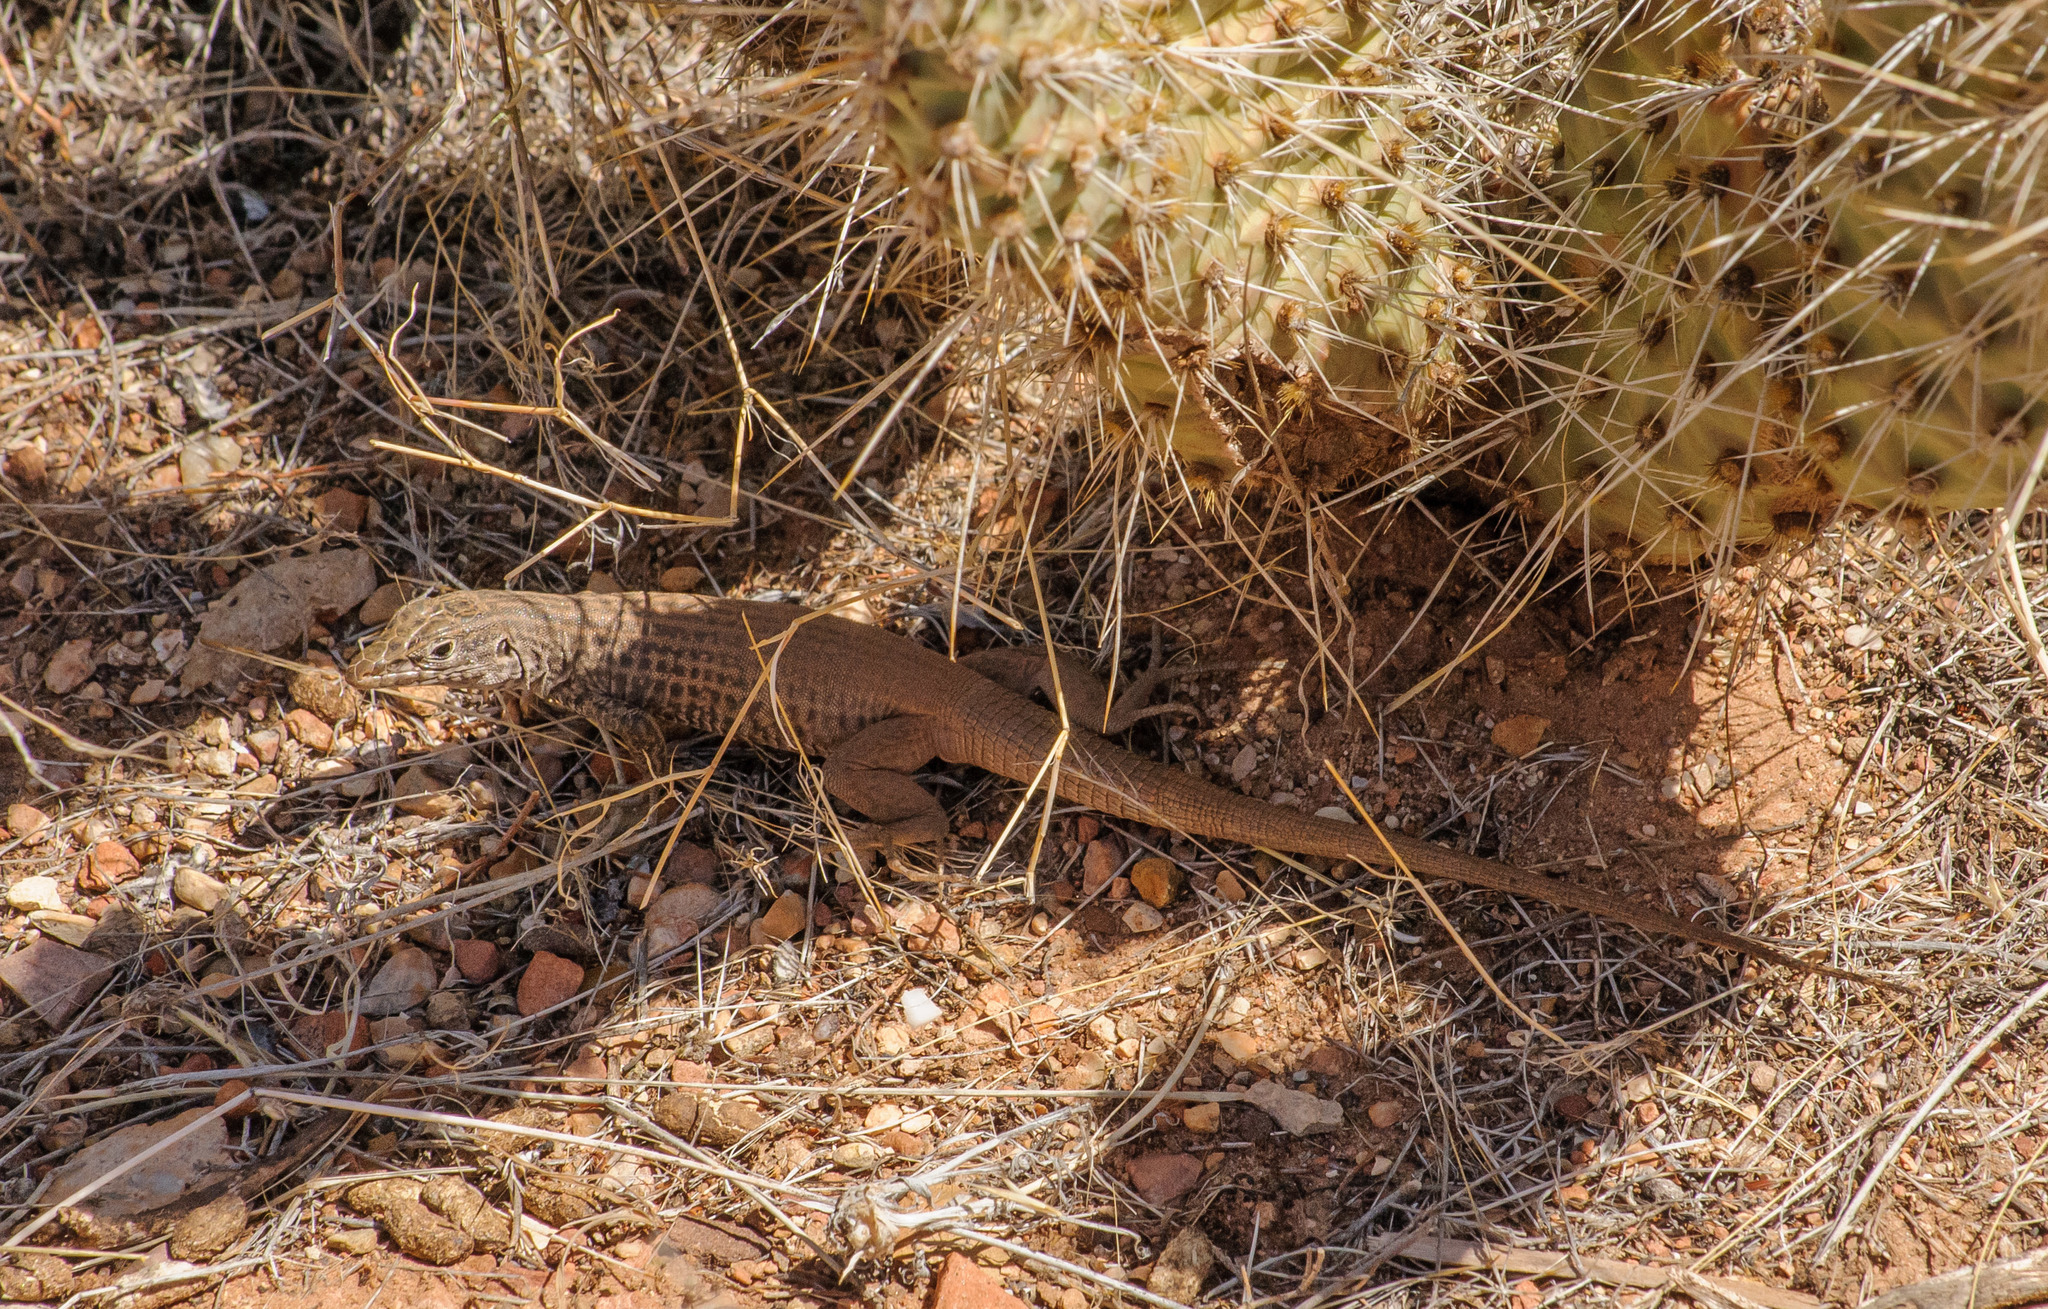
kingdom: Animalia
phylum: Chordata
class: Squamata
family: Teiidae
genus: Aspidoscelis
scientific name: Aspidoscelis tigris
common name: Tiger whiptail
